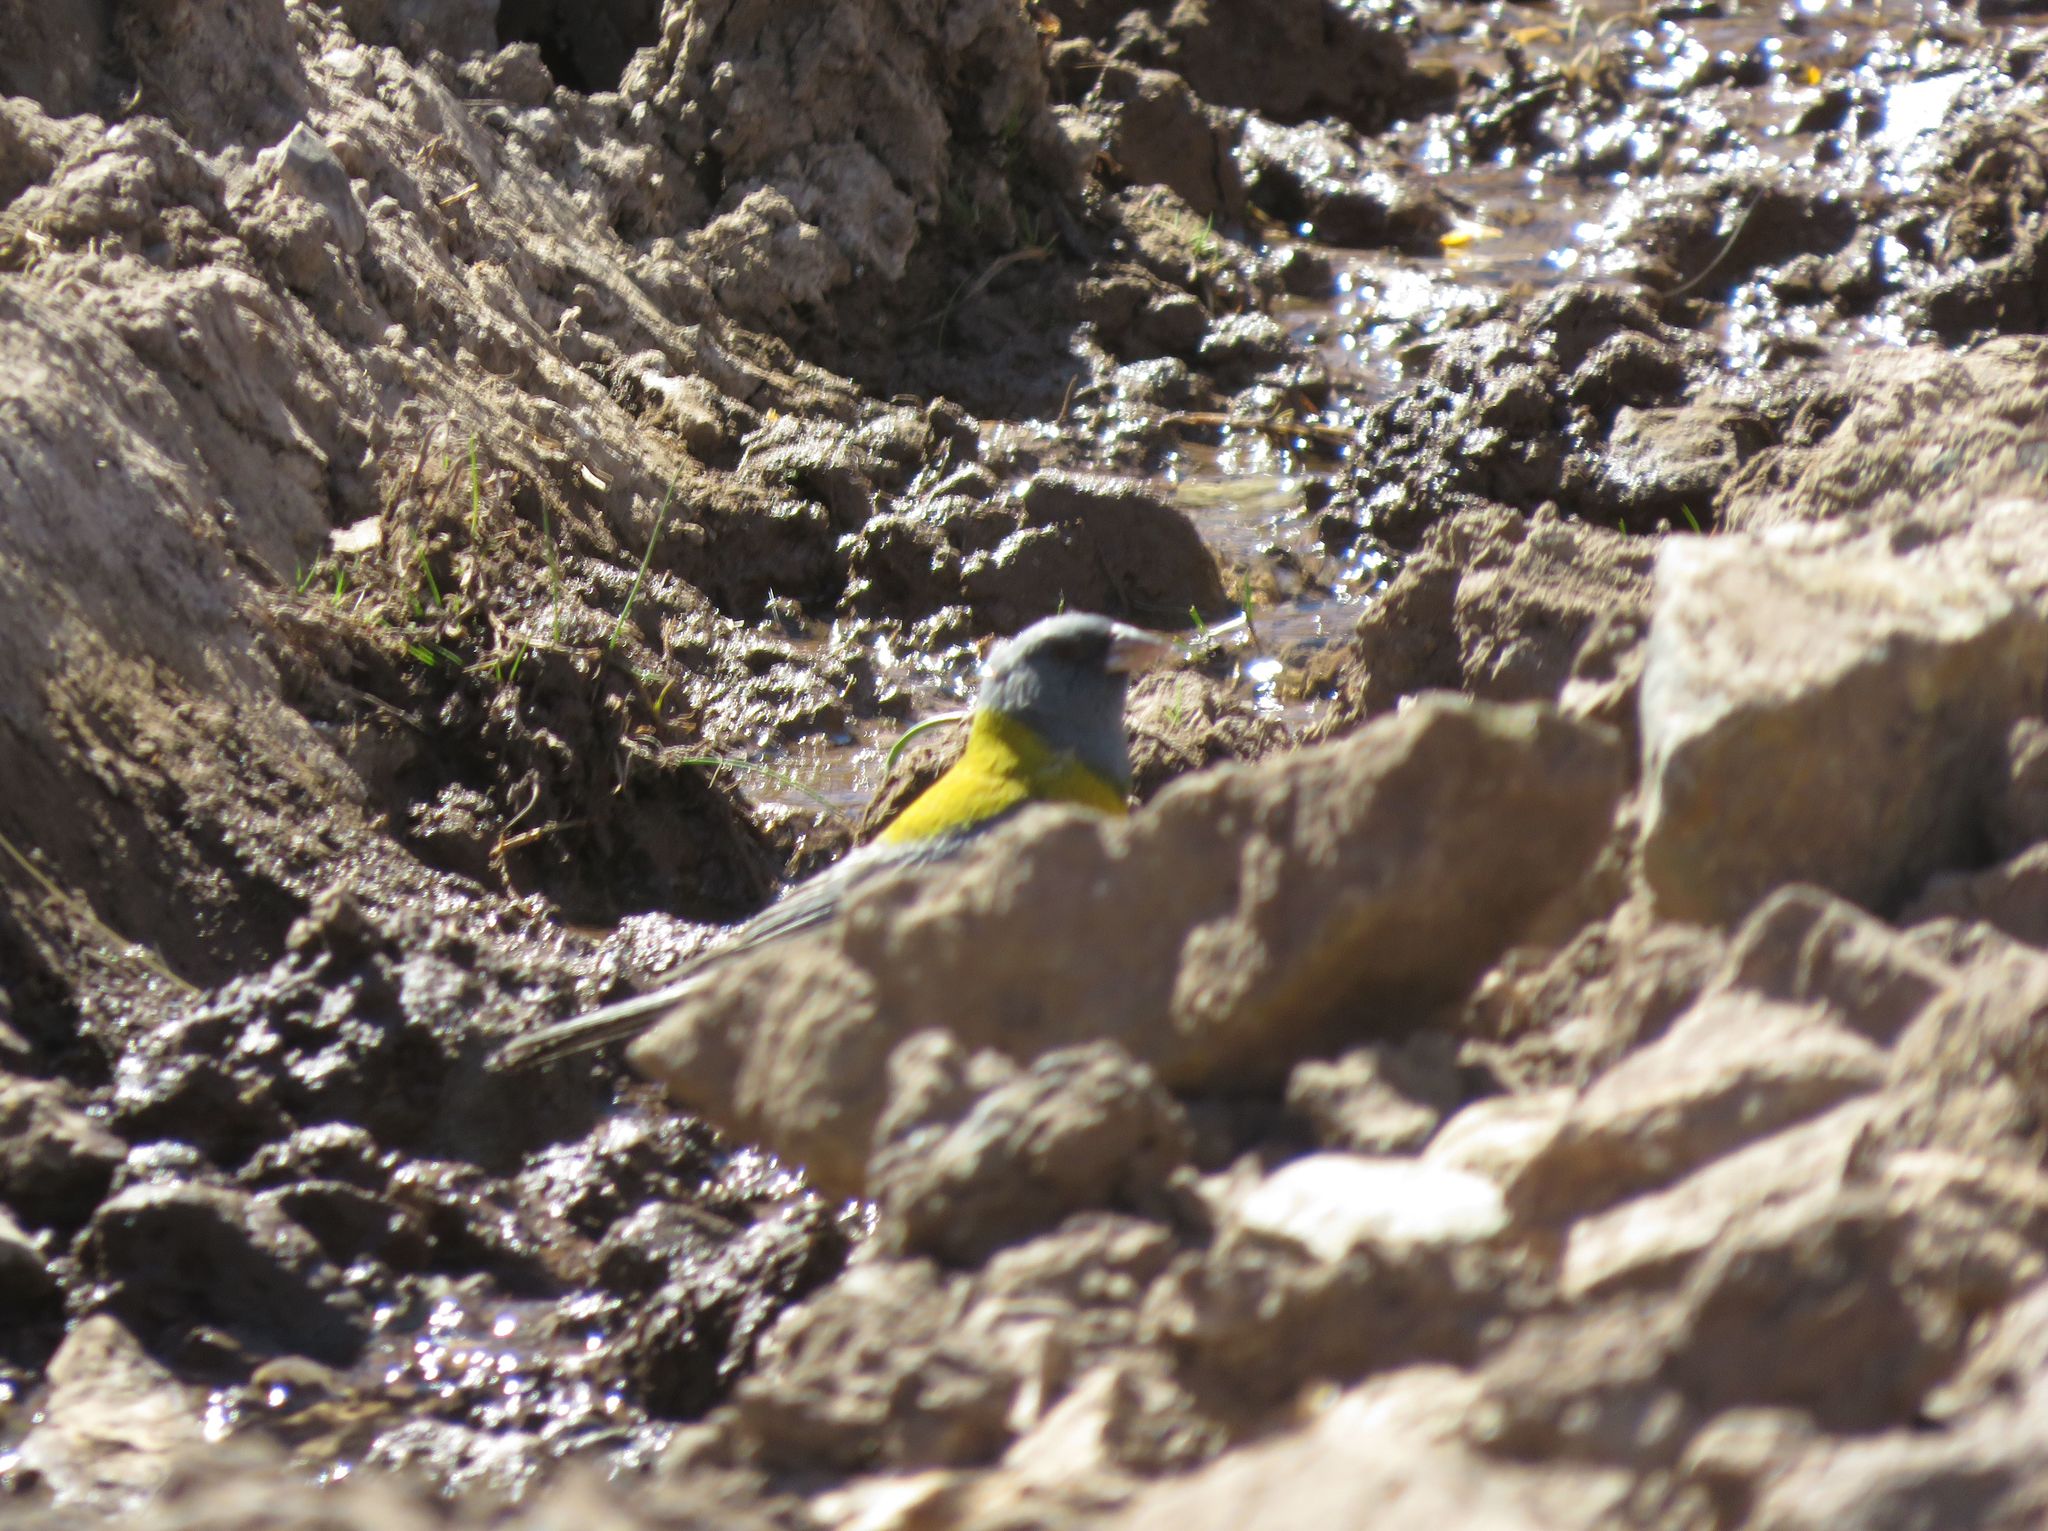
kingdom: Animalia
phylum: Chordata
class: Aves
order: Passeriformes
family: Thraupidae
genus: Phrygilus
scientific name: Phrygilus gayi
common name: Grey-hooded sierra finch
